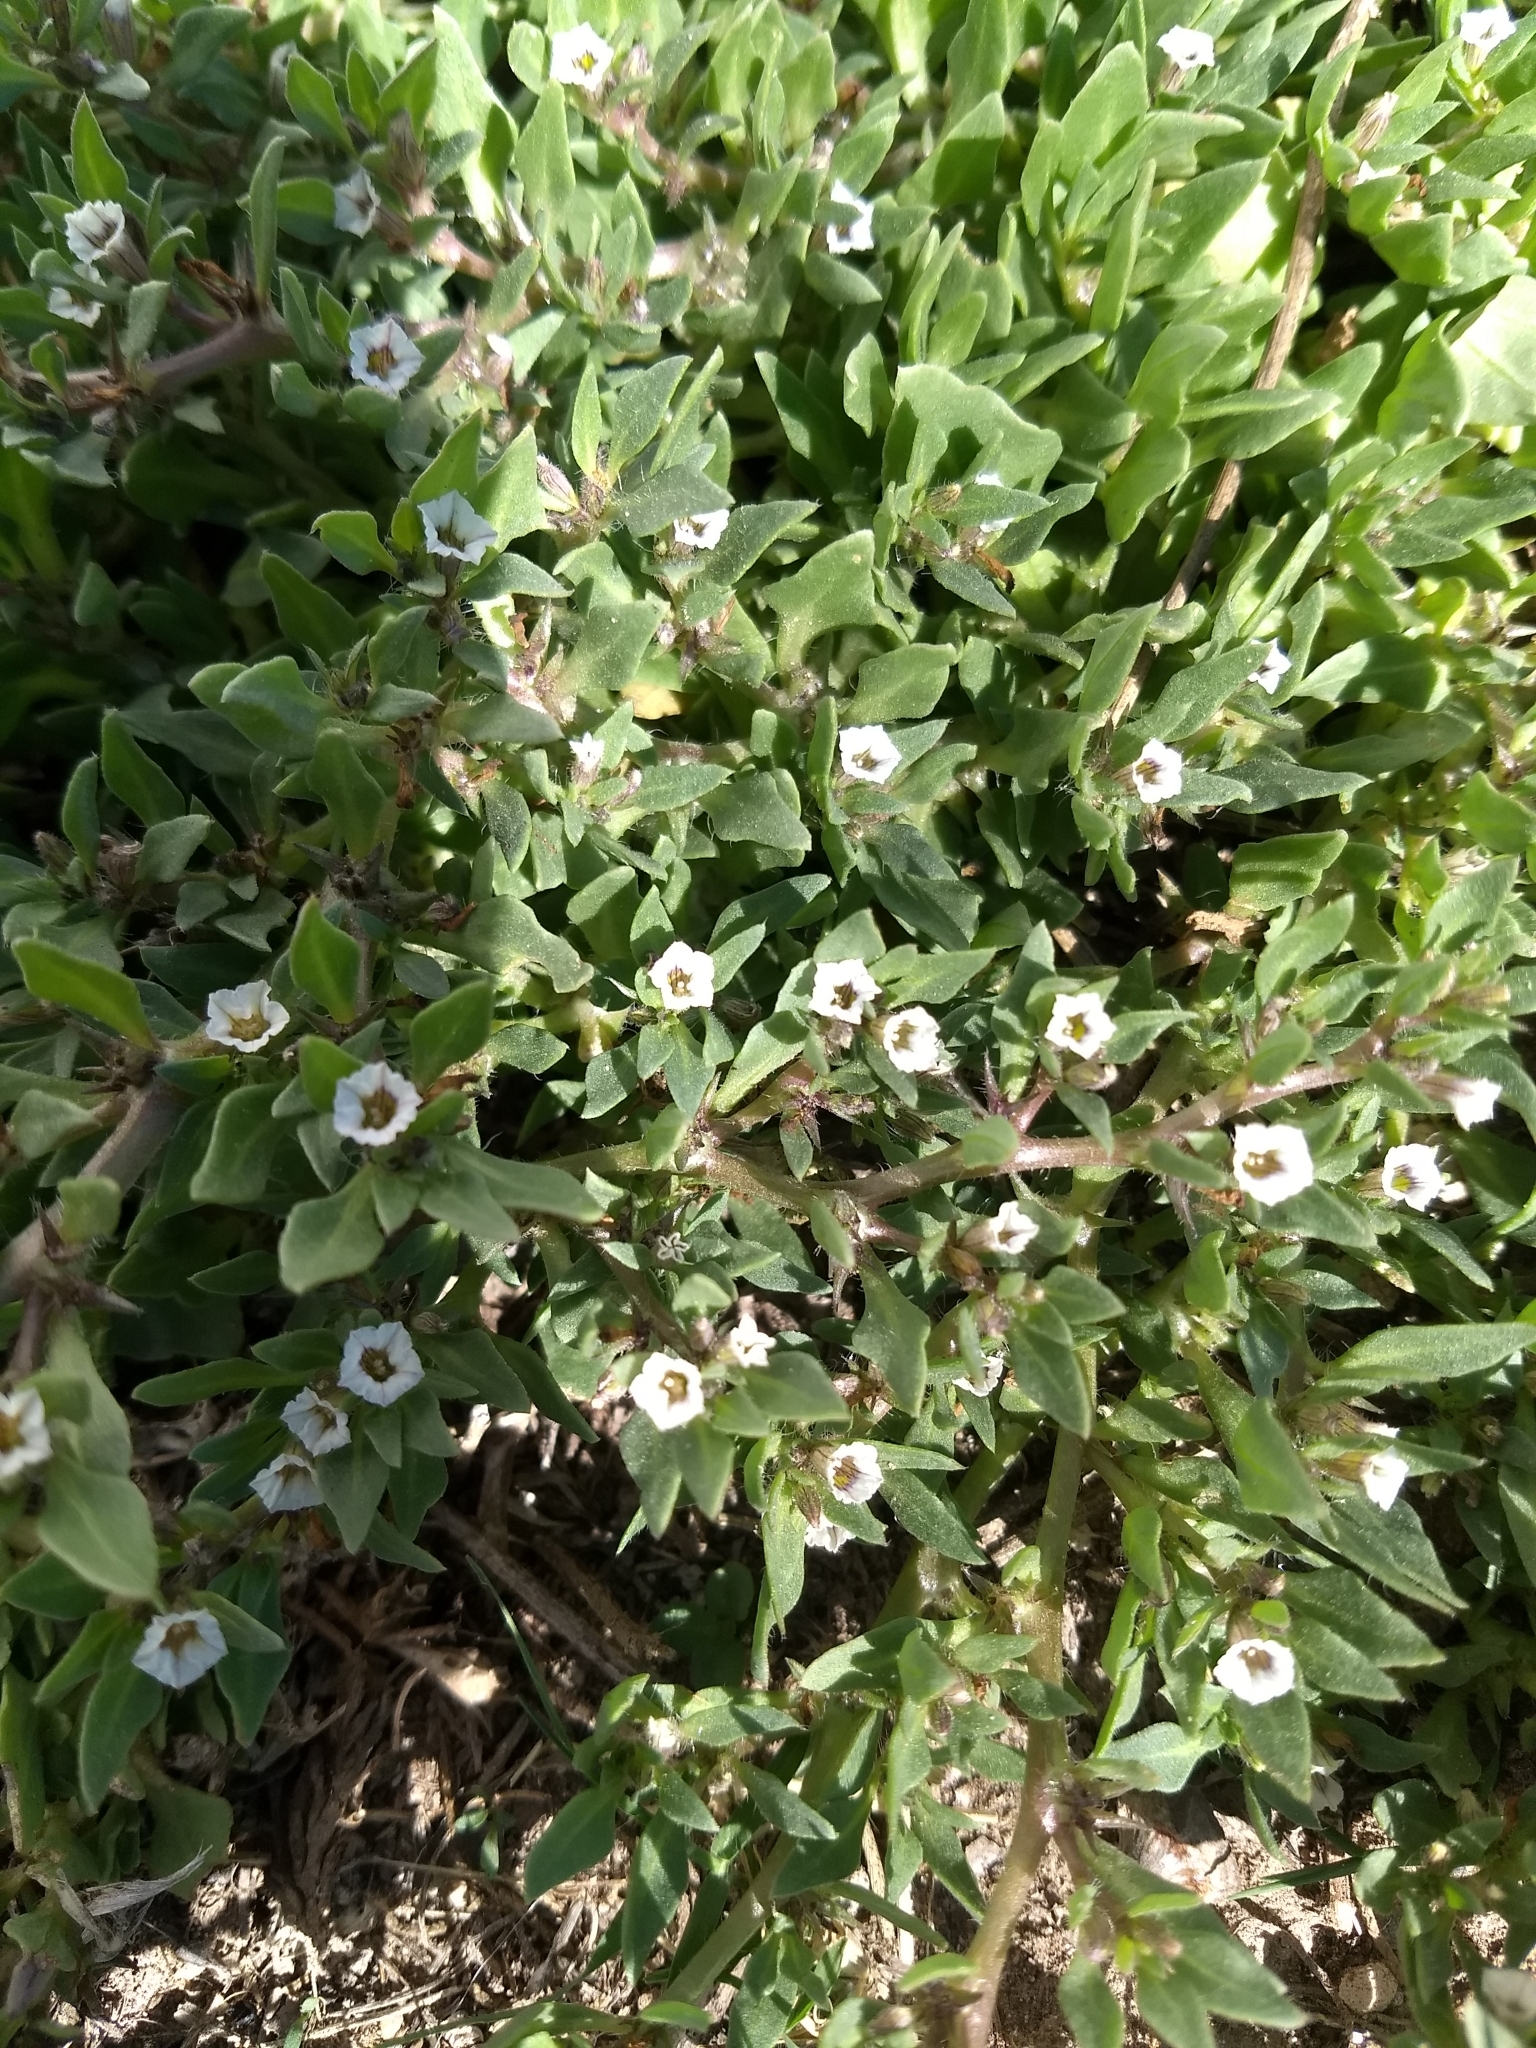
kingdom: Plantae
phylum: Tracheophyta
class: Magnoliopsida
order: Solanales
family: Solanaceae
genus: Sclerophylax
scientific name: Sclerophylax spinescens
